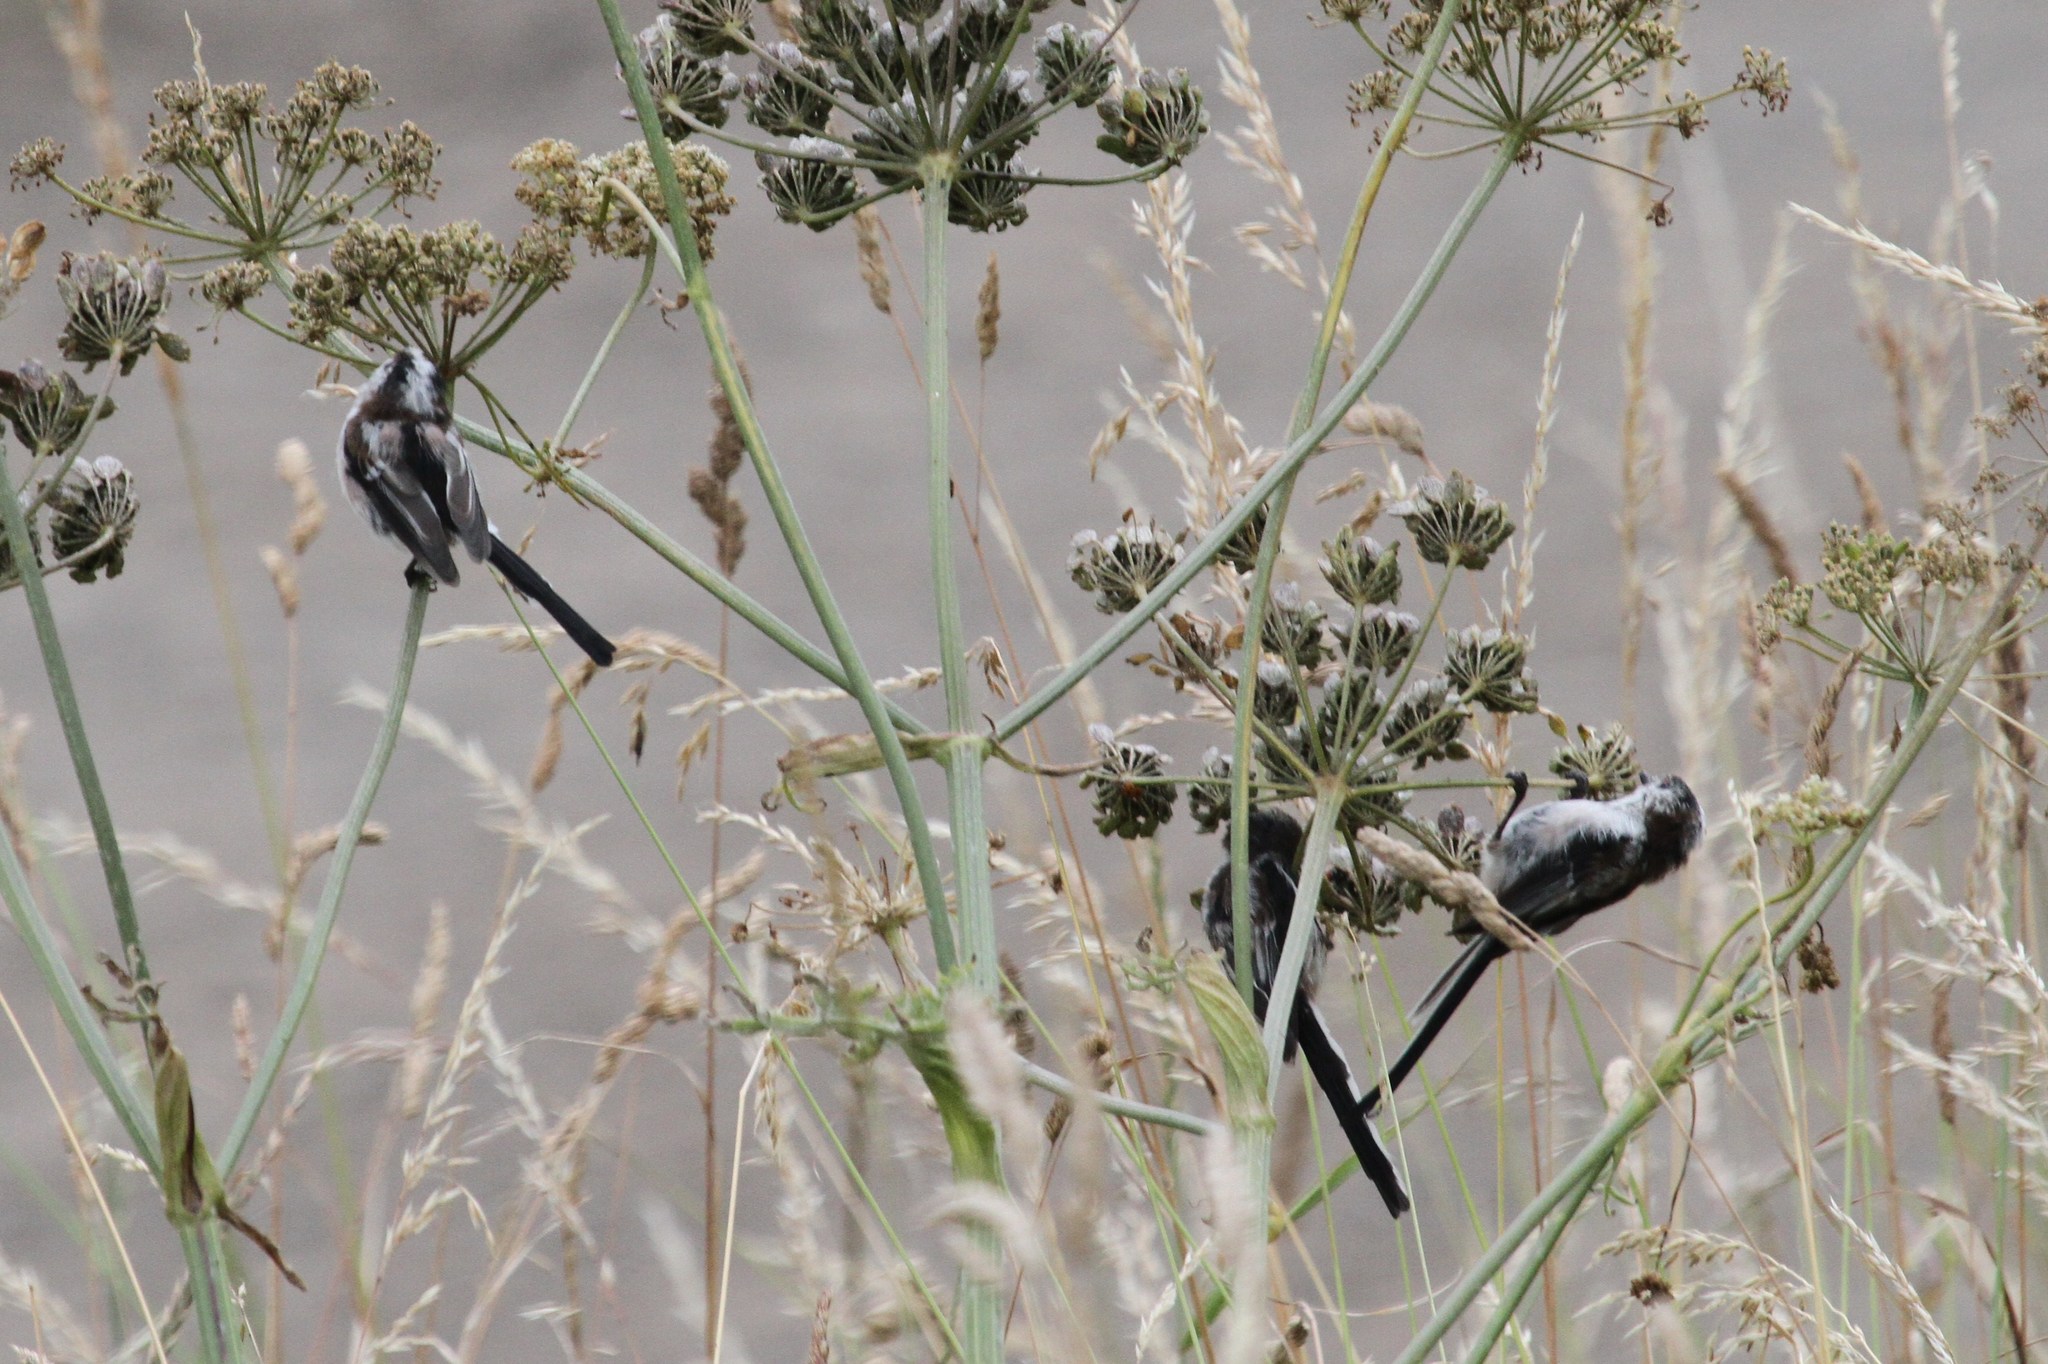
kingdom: Animalia
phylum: Chordata
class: Aves
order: Passeriformes
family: Aegithalidae
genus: Aegithalos
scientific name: Aegithalos caudatus
